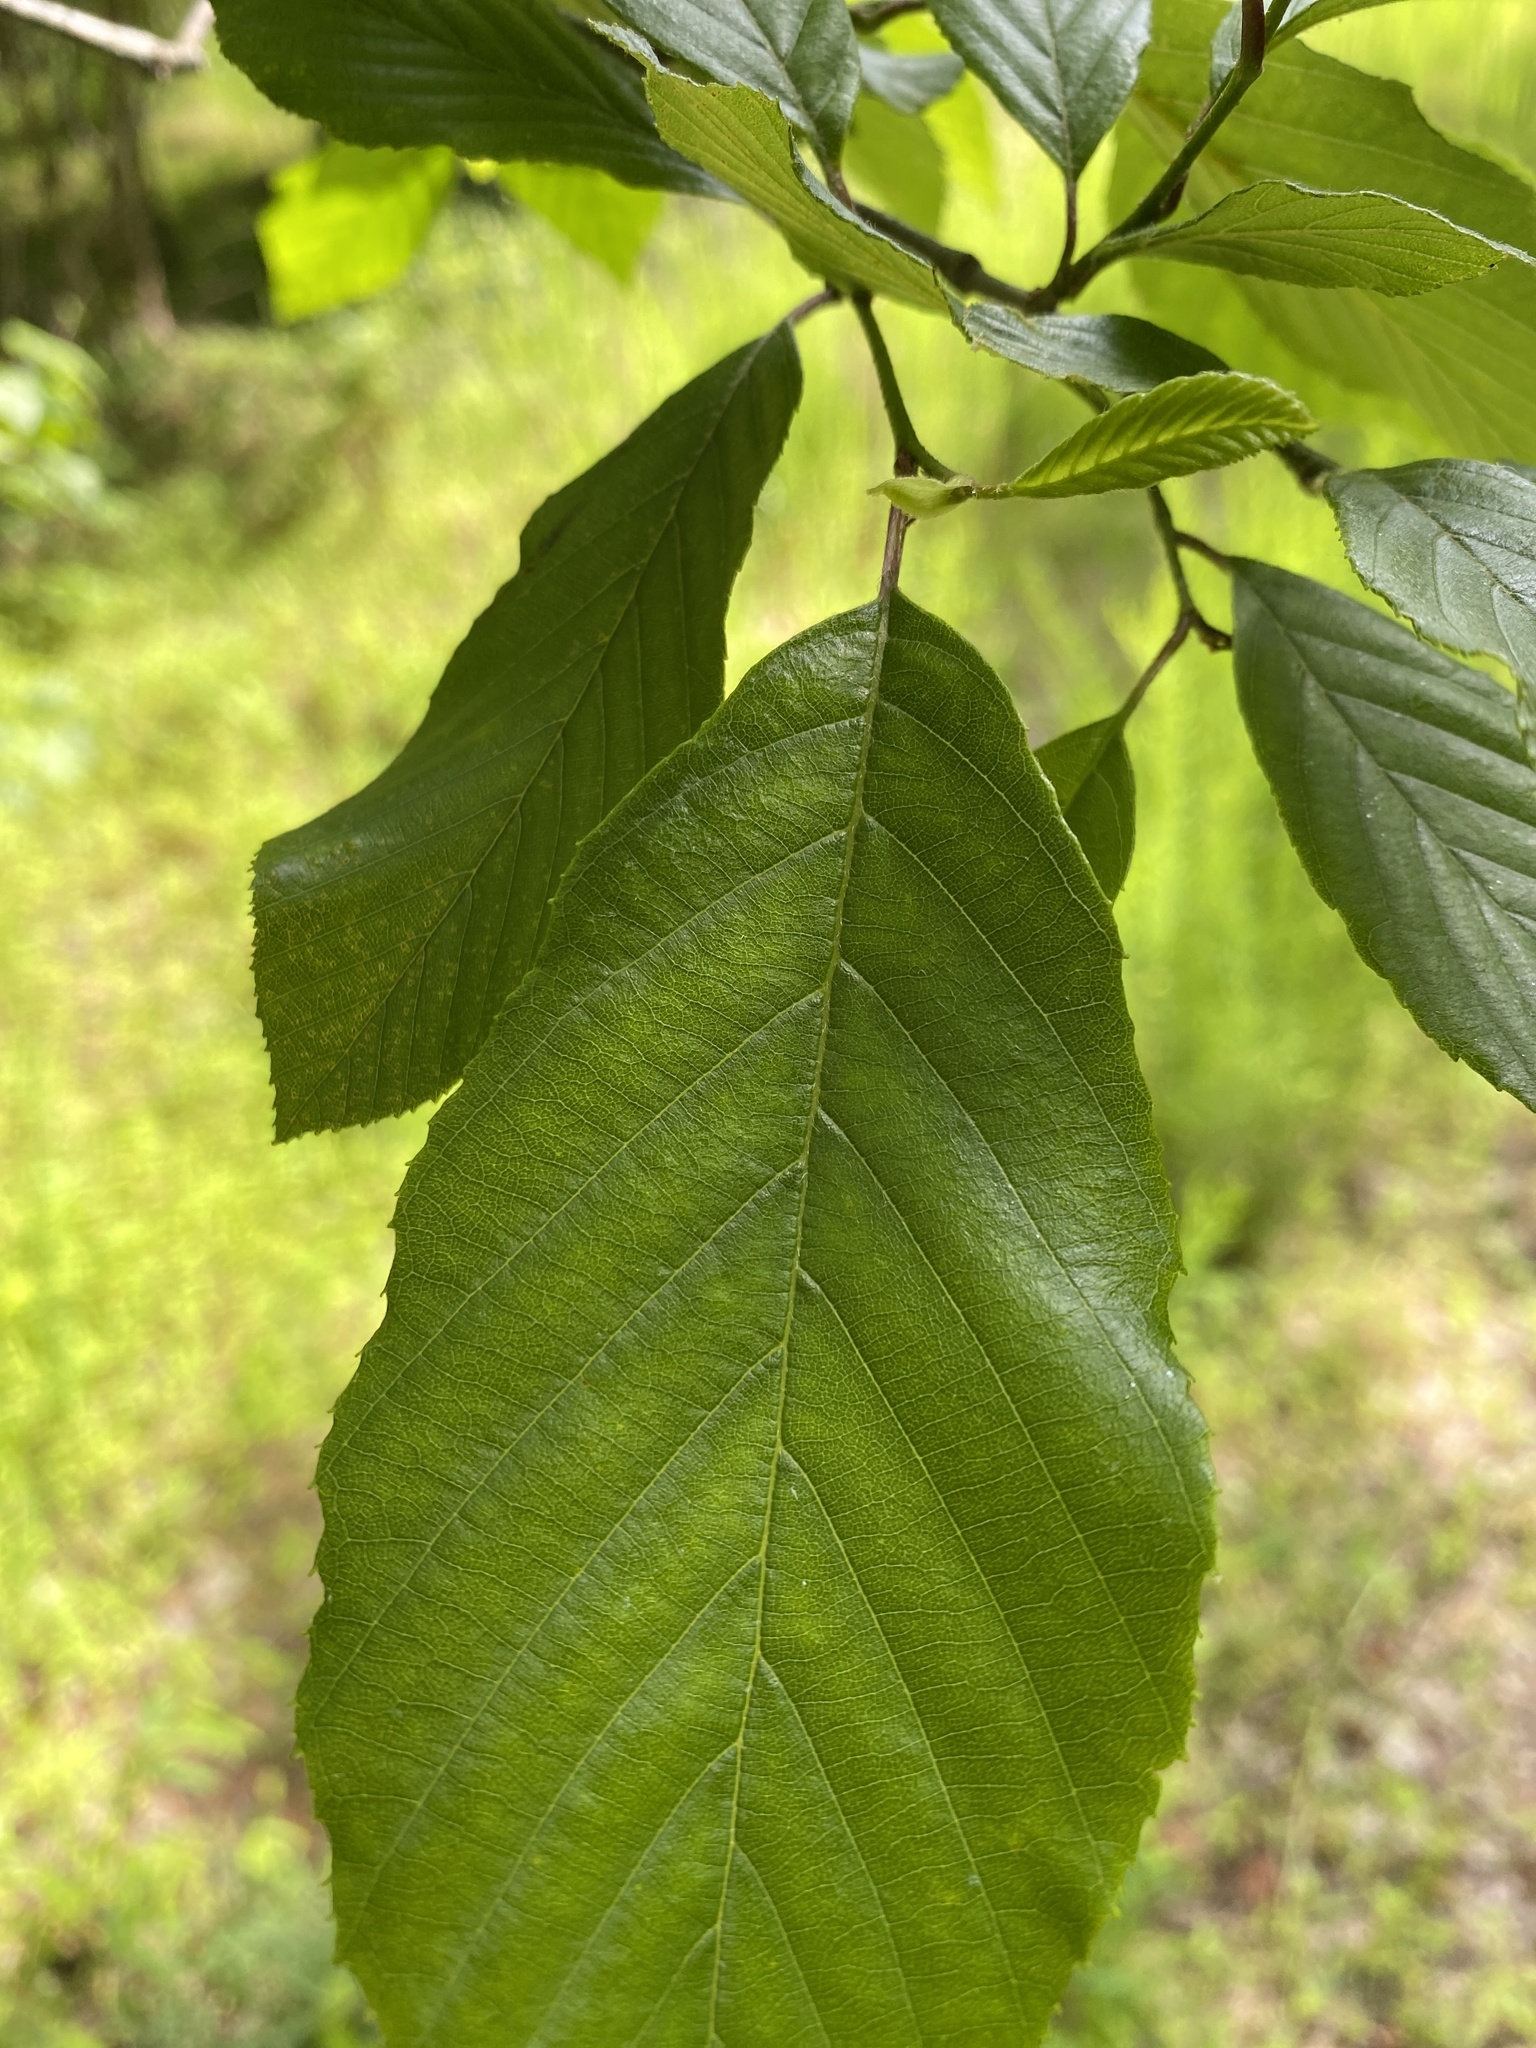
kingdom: Plantae
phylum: Tracheophyta
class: Magnoliopsida
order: Fagales
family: Betulaceae
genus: Alnus
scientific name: Alnus serrulata
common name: Hazel alder
